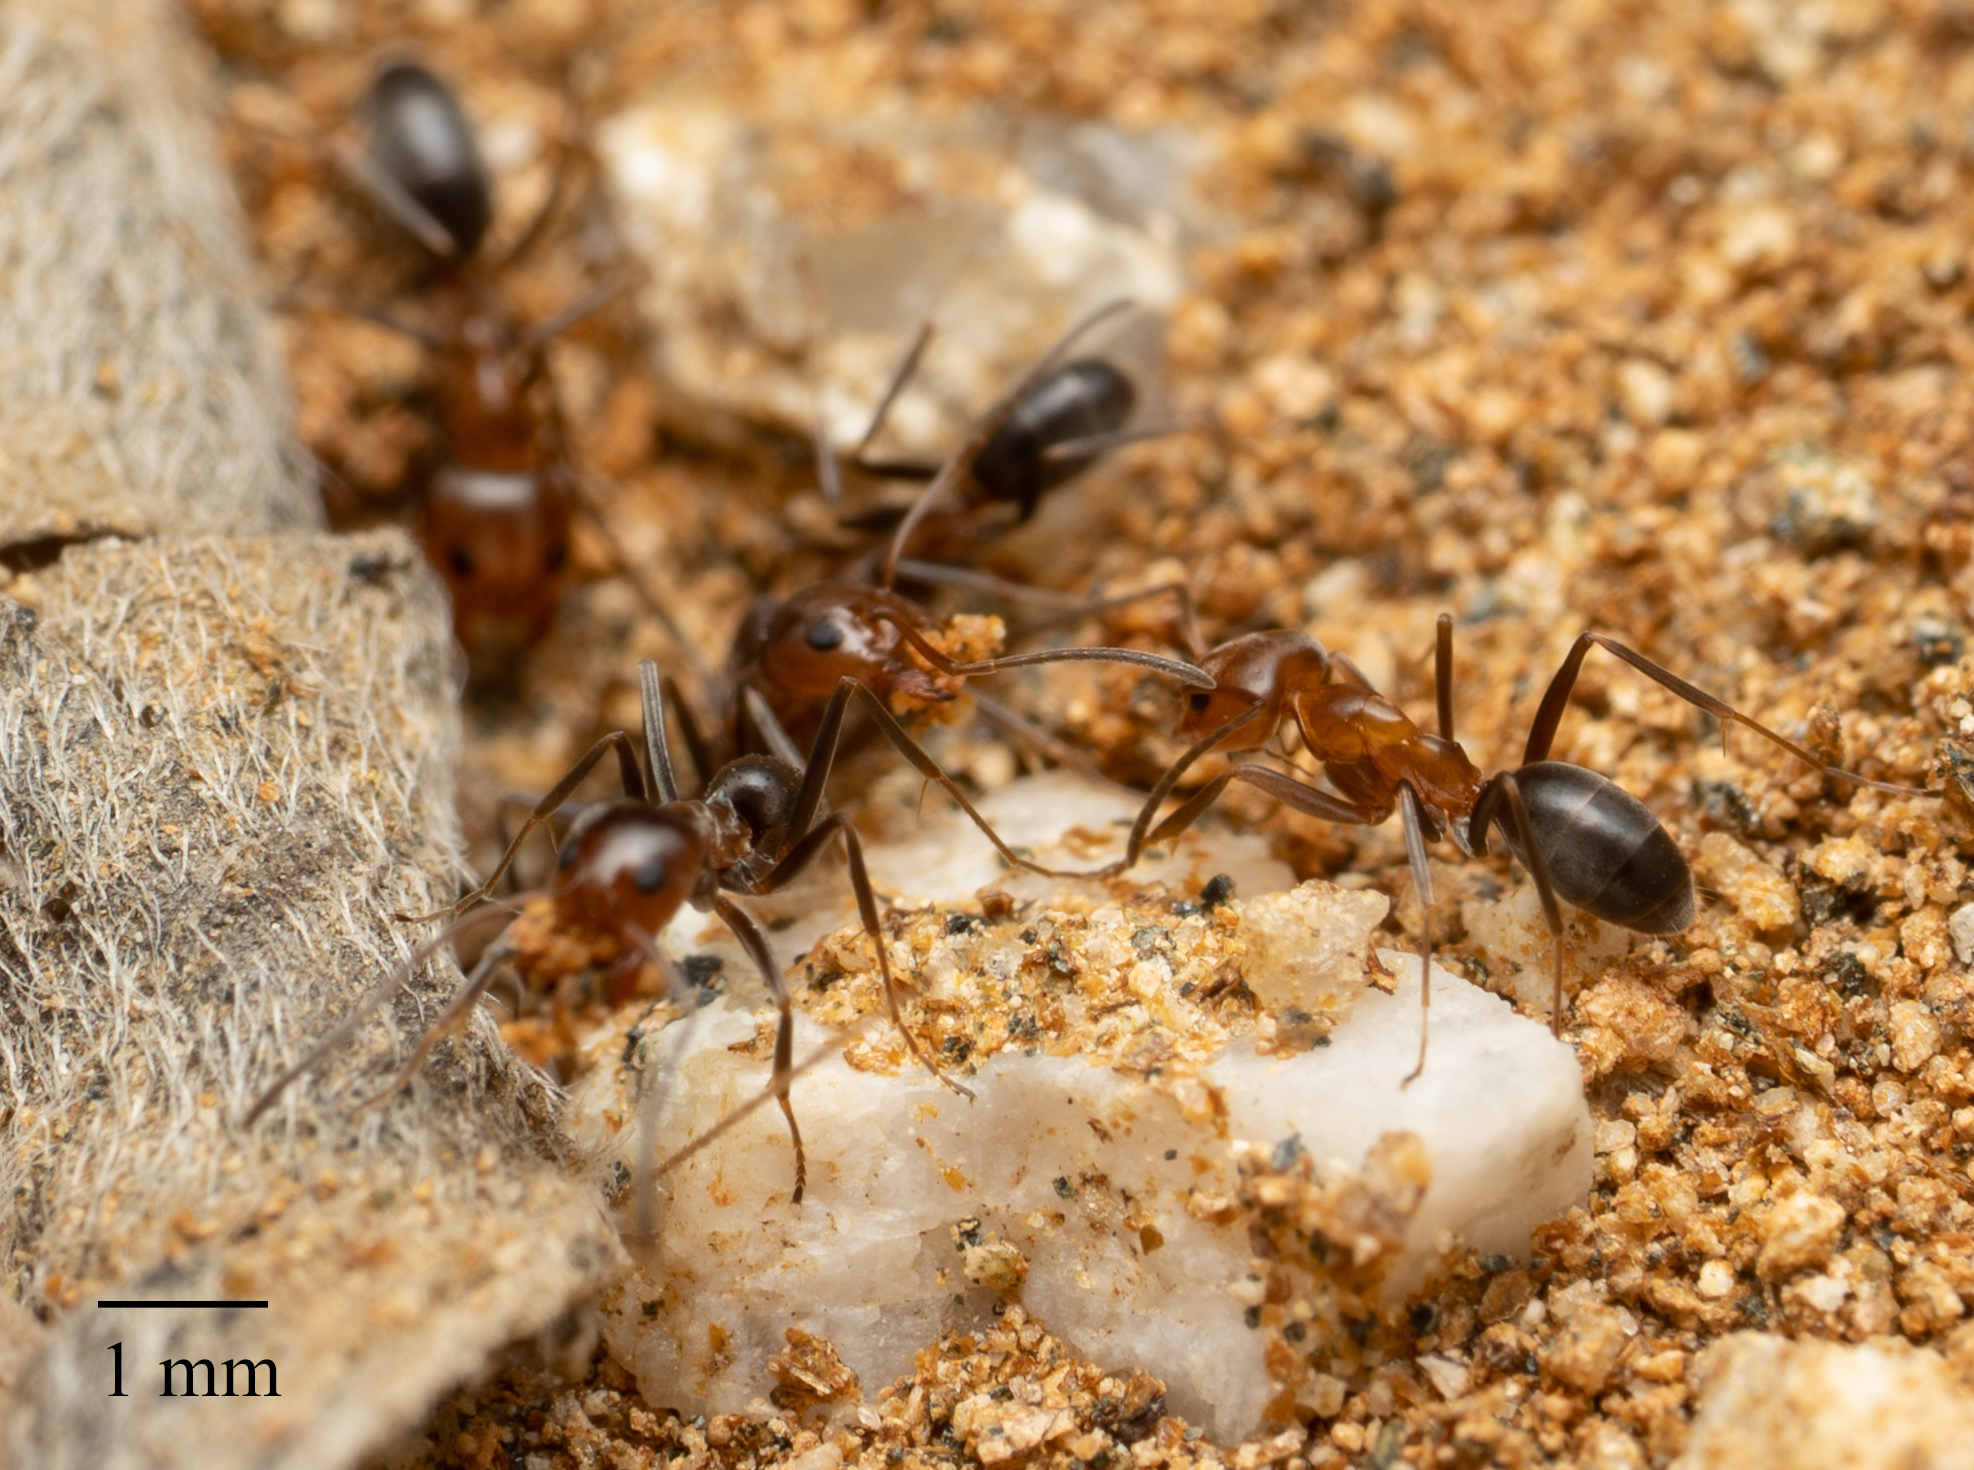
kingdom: Animalia
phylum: Arthropoda
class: Insecta
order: Hymenoptera
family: Formicidae
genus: Dorymyrmex
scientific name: Dorymyrmex bicolor
